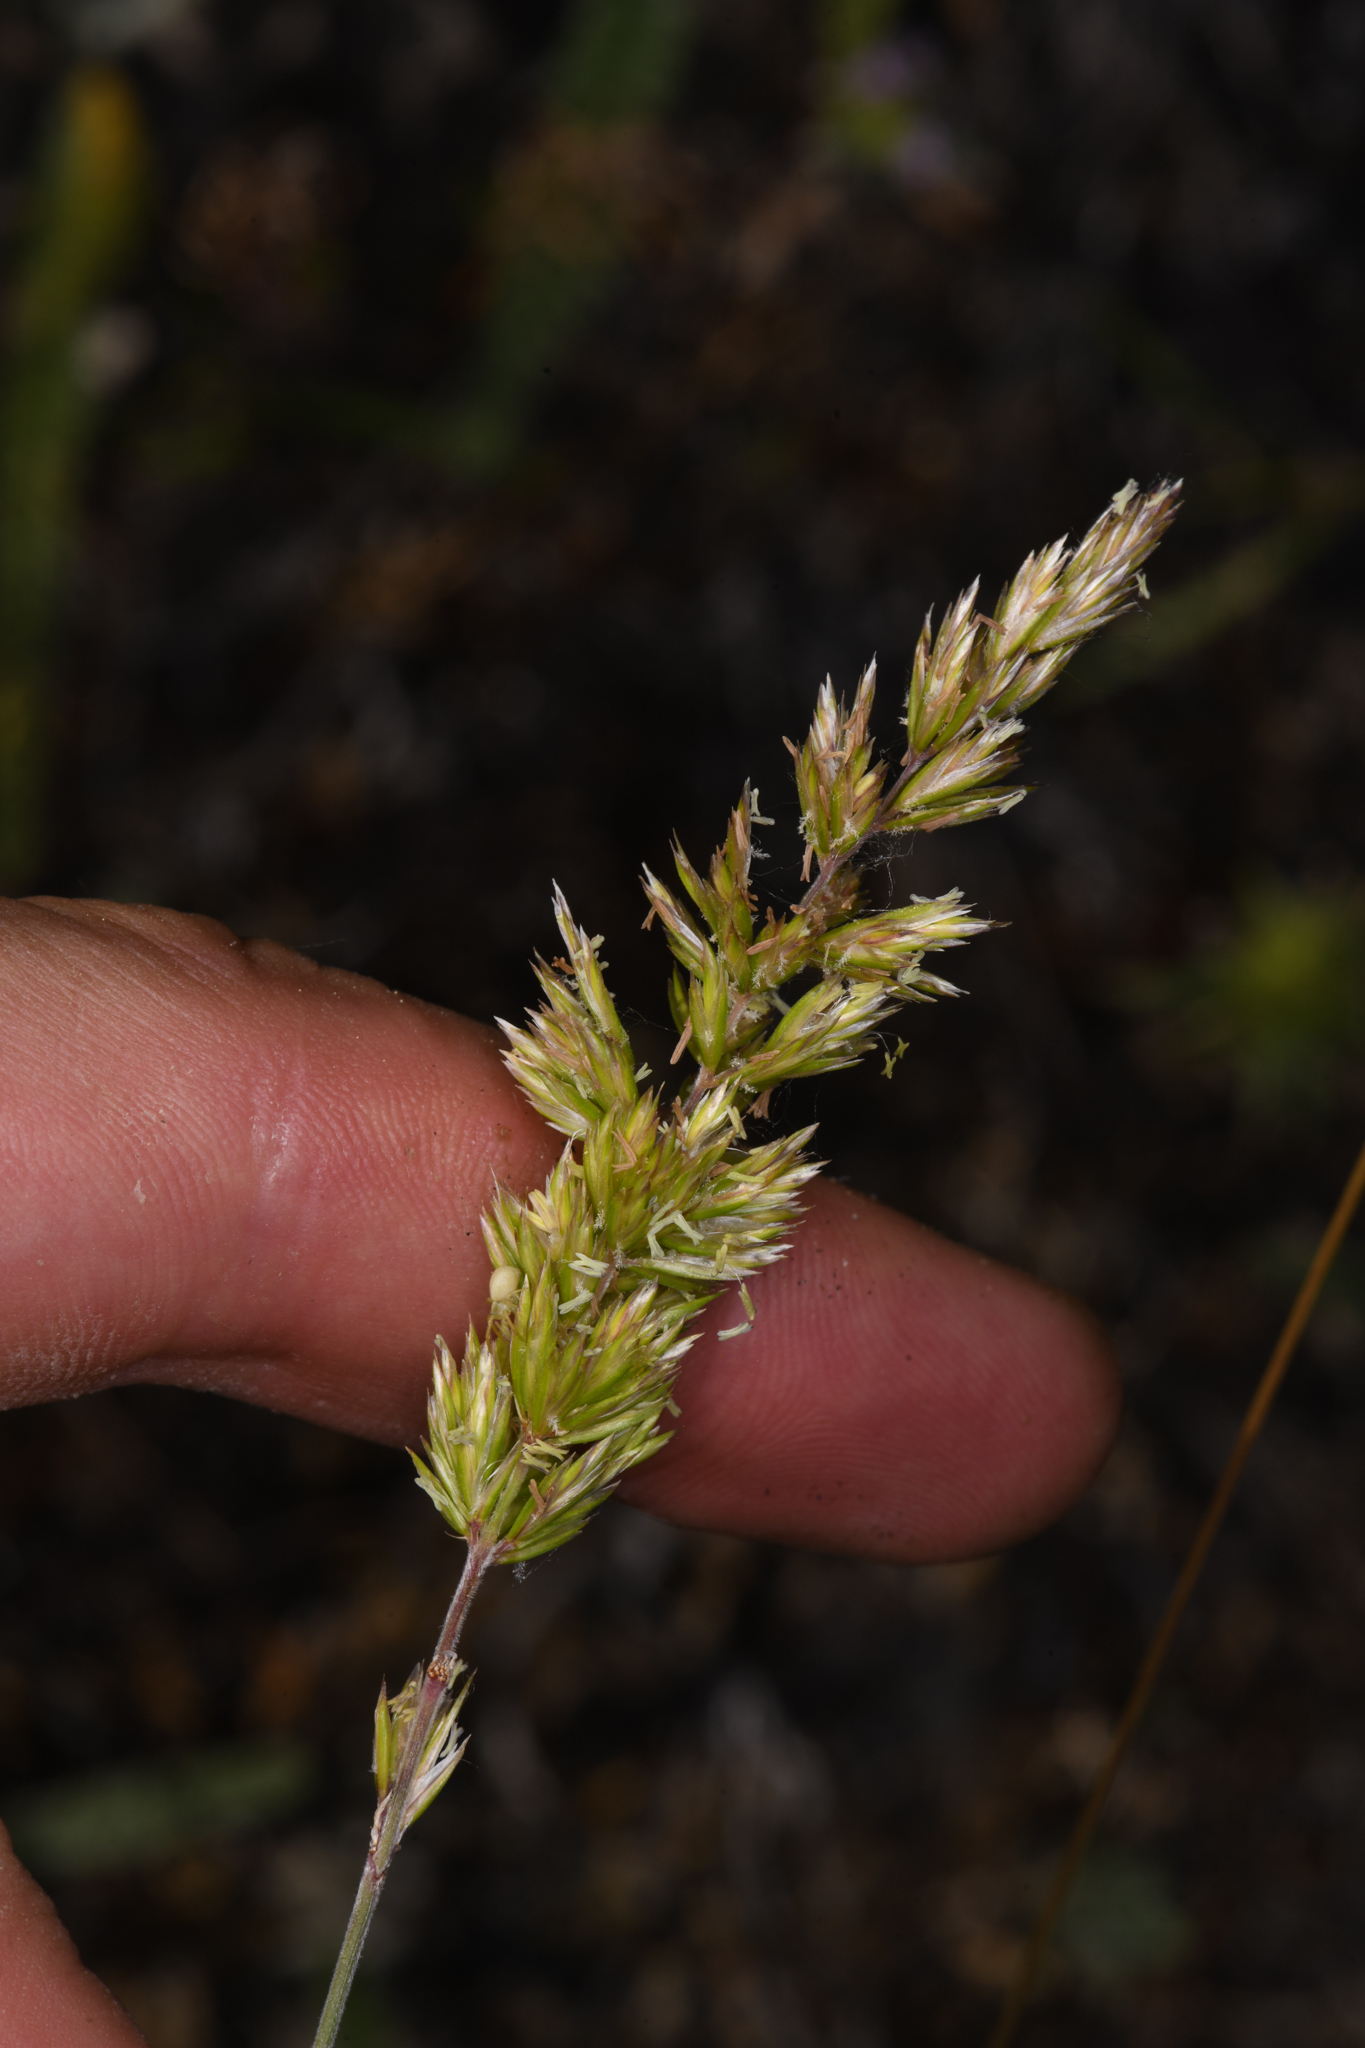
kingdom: Plantae
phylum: Tracheophyta
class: Liliopsida
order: Poales
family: Poaceae
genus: Koeleria
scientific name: Koeleria macrantha
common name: Crested hair-grass
